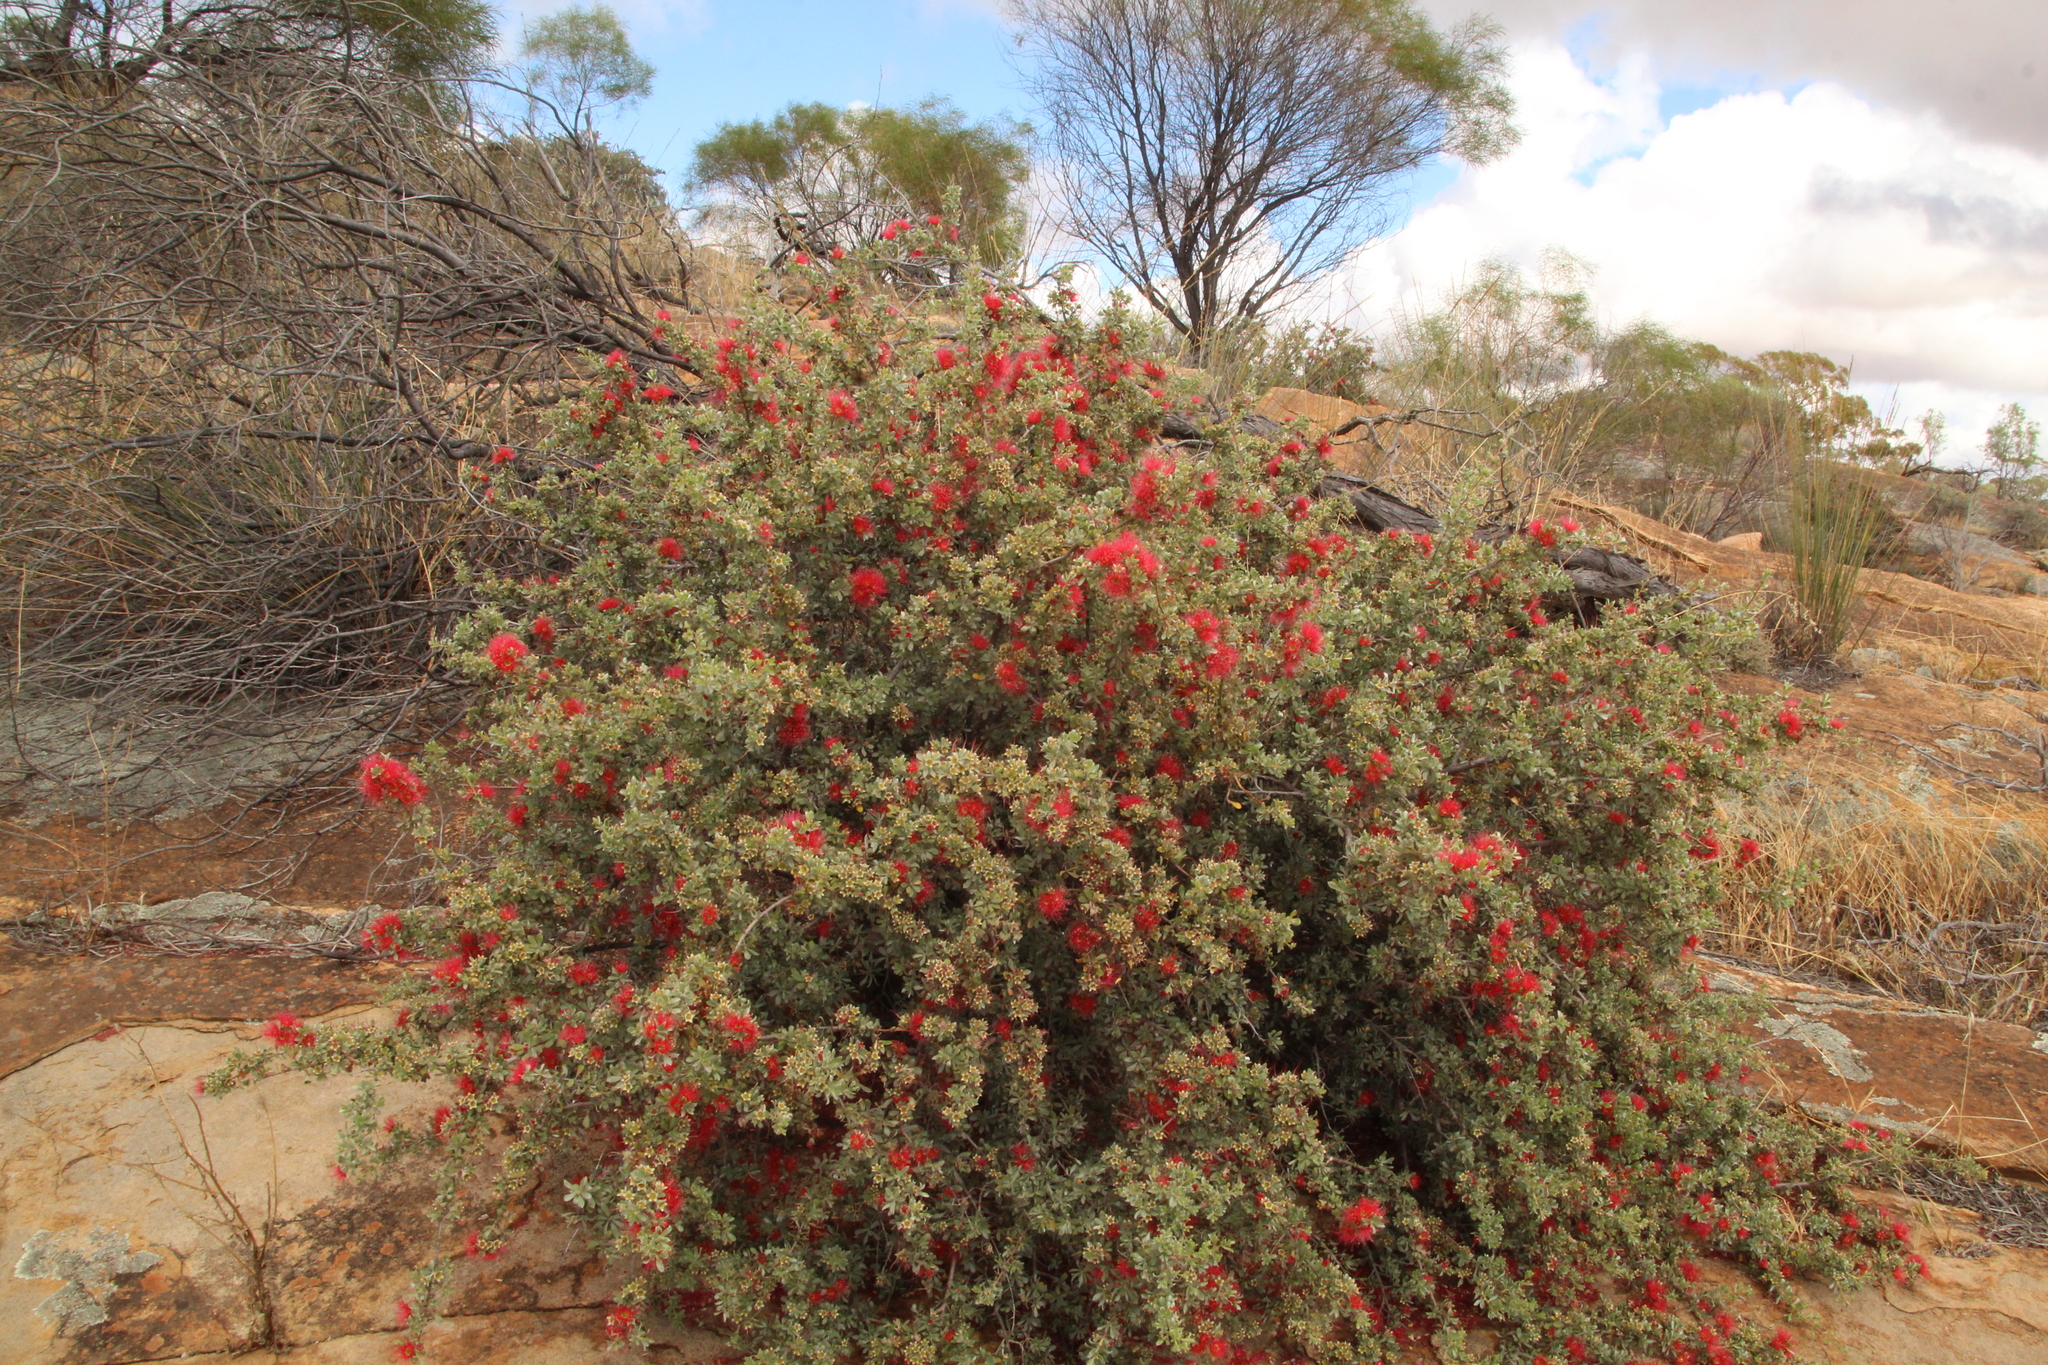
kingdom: Plantae
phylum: Tracheophyta
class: Magnoliopsida
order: Myrtales
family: Myrtaceae
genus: Kunzea
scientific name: Kunzea pulchella
